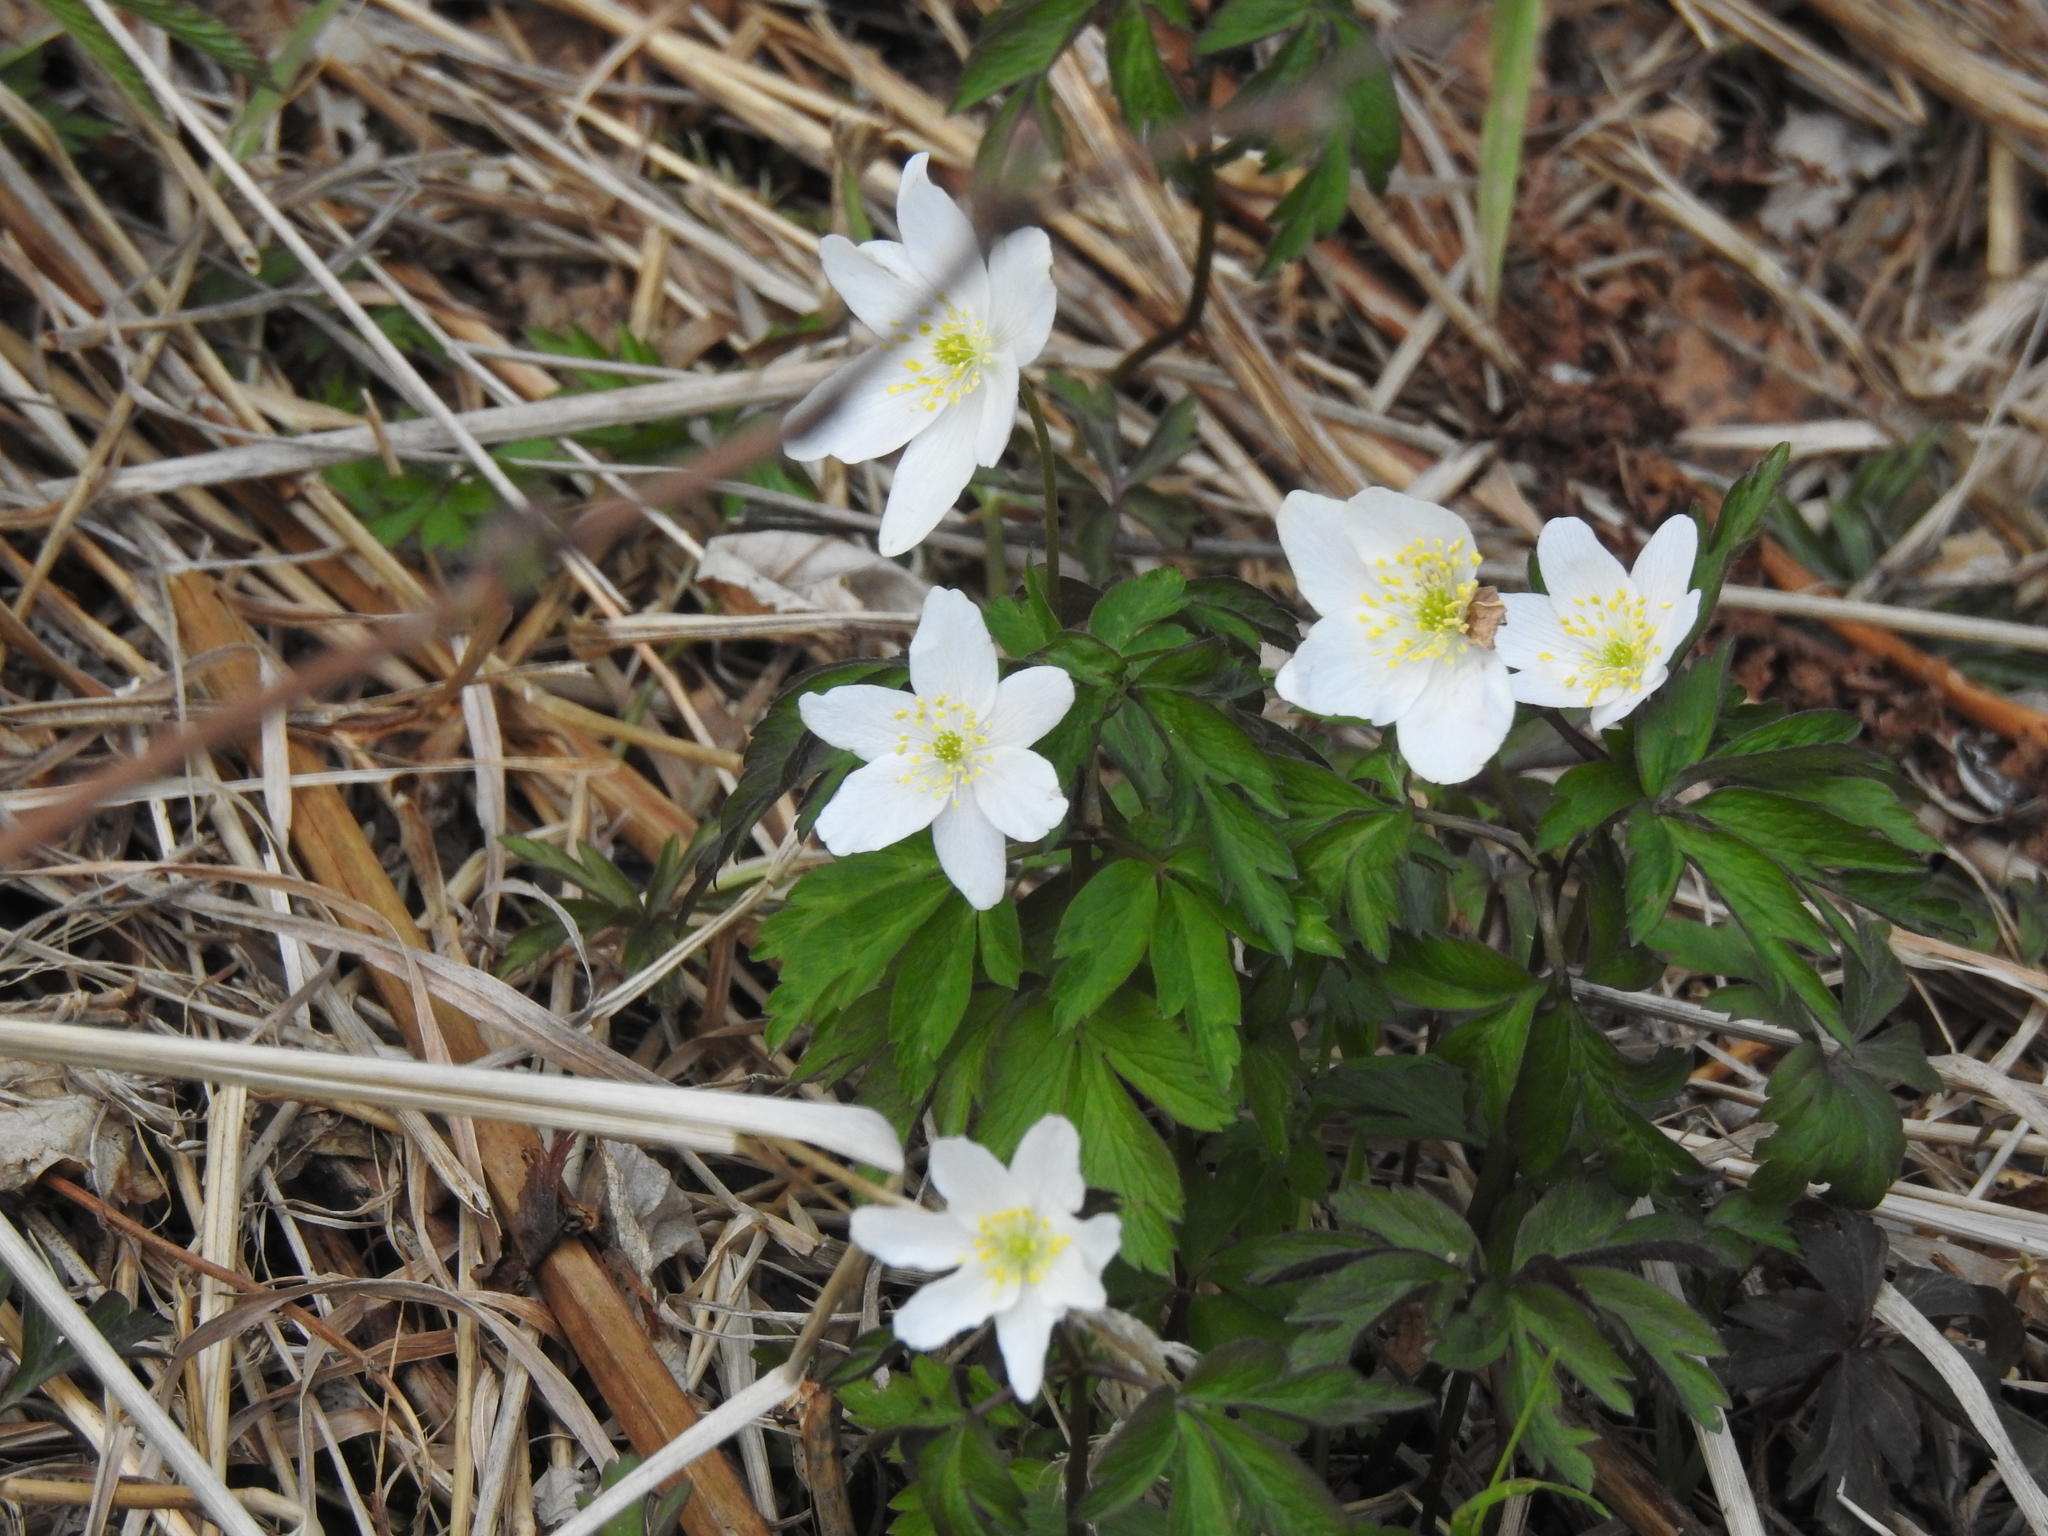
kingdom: Plantae
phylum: Tracheophyta
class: Magnoliopsida
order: Ranunculales
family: Ranunculaceae
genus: Anemone
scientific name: Anemone nemorosa
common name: Wood anemone
